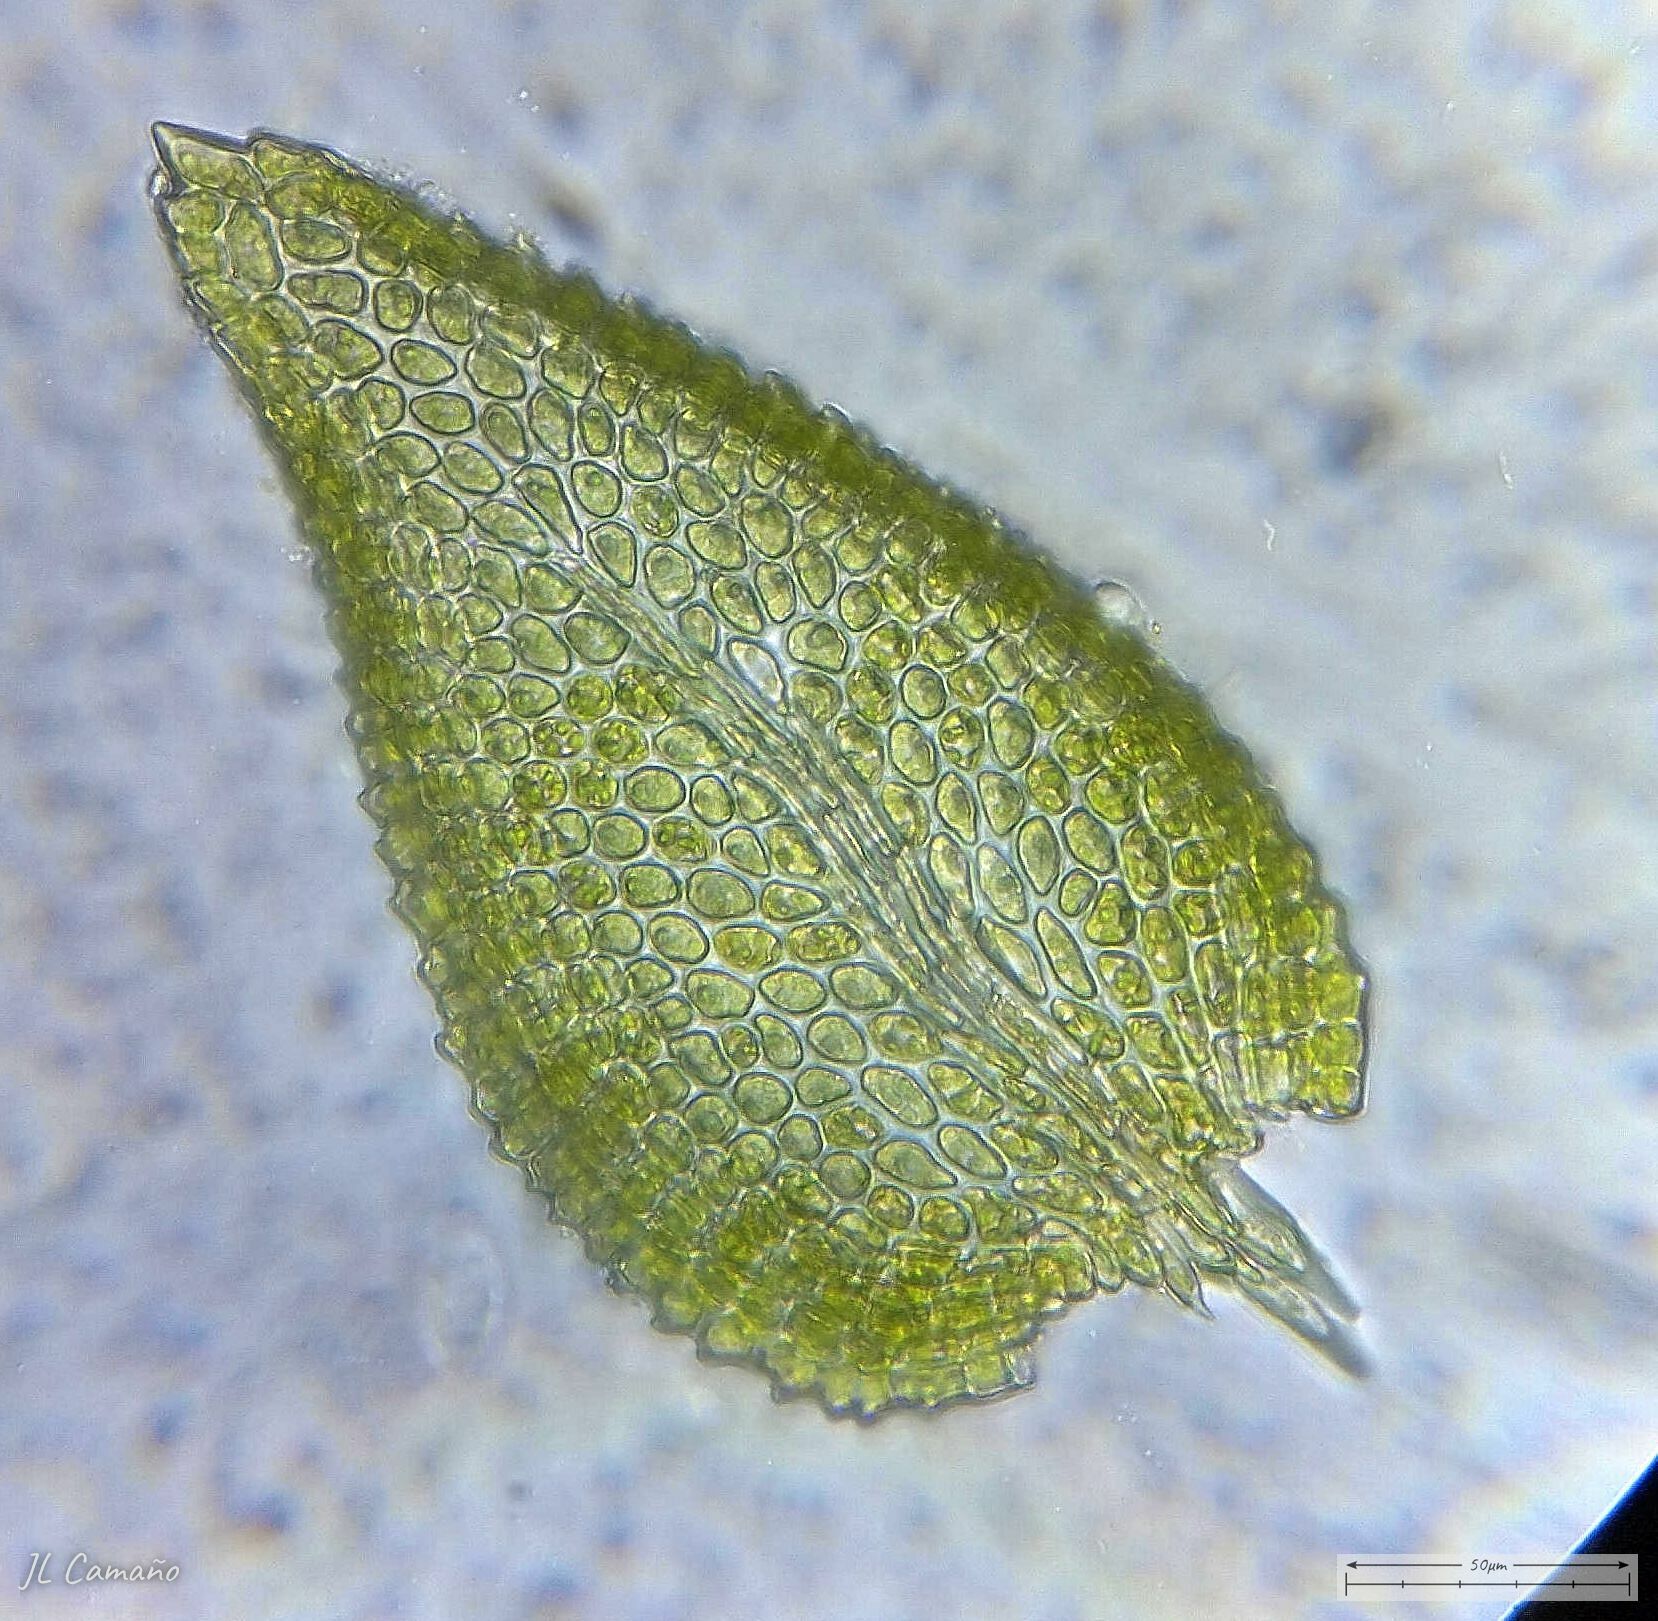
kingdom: Plantae
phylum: Bryophyta
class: Bryopsida
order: Hypnales
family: Thuidiaceae
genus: Thuidium
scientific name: Thuidium tamariscinum
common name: Common tamarisk-moss
